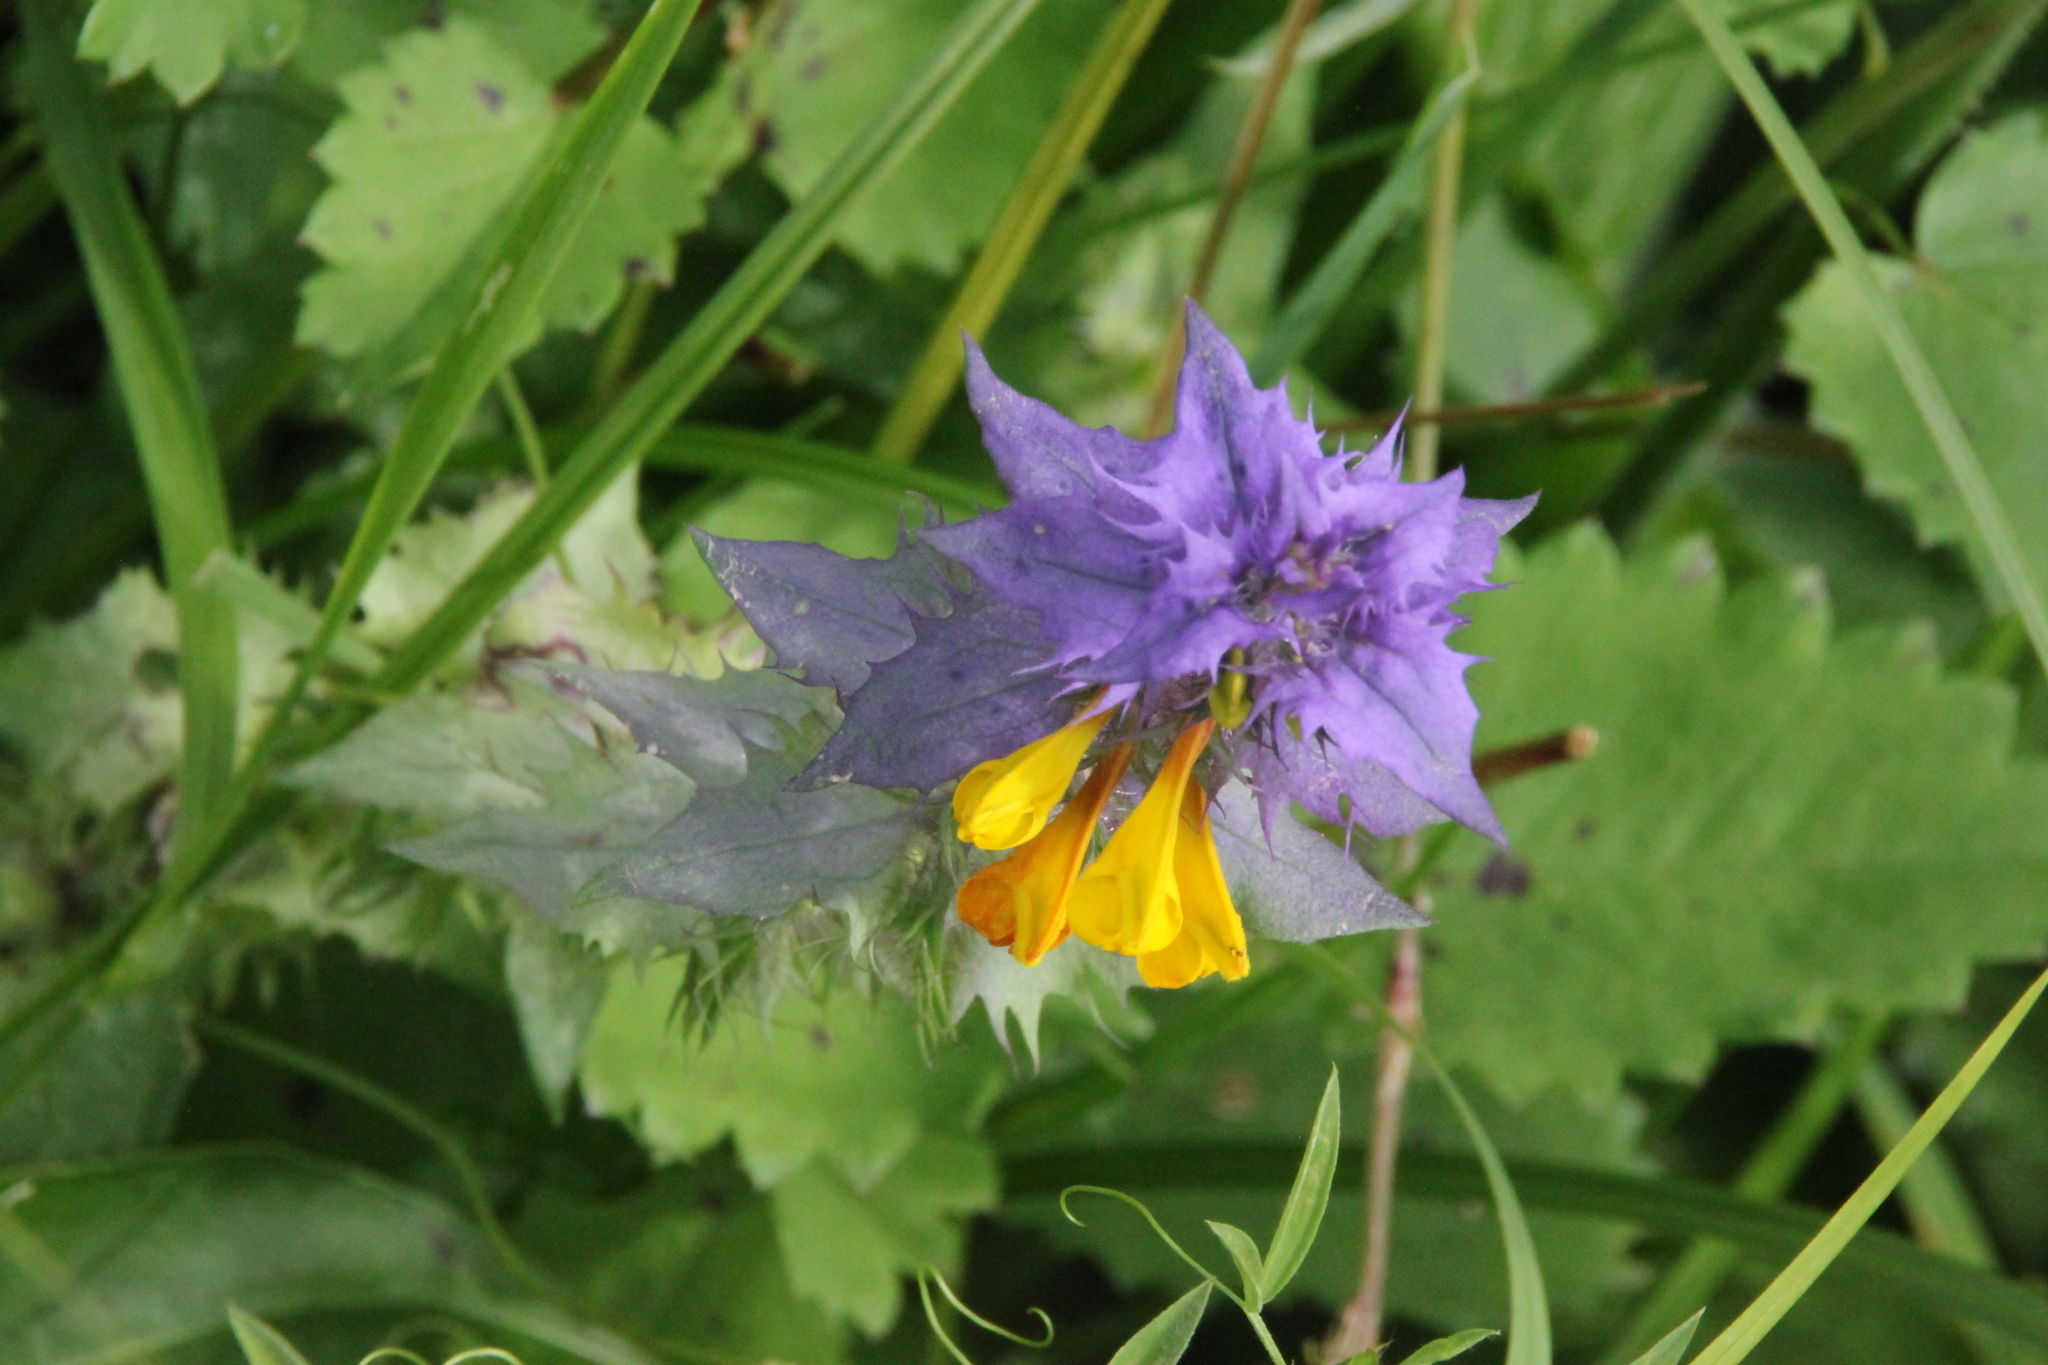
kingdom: Plantae
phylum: Tracheophyta
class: Magnoliopsida
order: Lamiales
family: Orobanchaceae
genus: Melampyrum
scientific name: Melampyrum nemorosum
